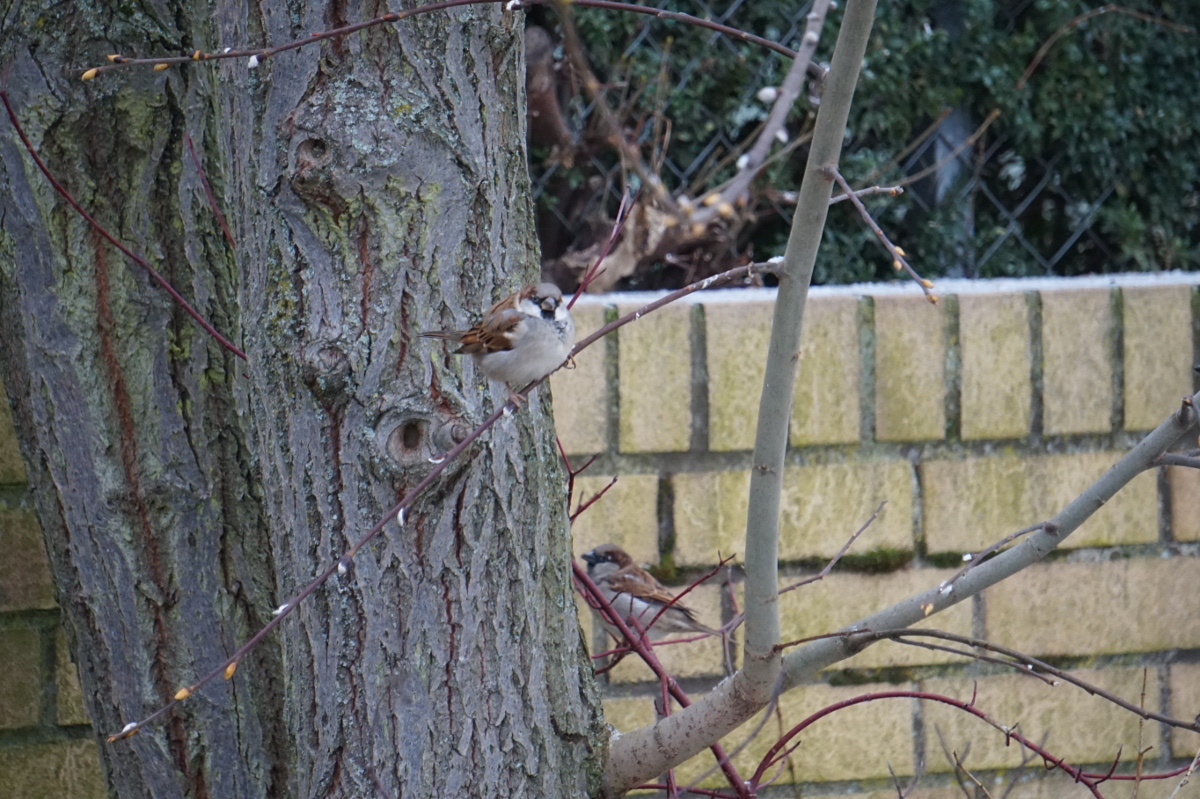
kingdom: Animalia
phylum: Chordata
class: Aves
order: Passeriformes
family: Passeridae
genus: Passer
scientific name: Passer domesticus
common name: House sparrow
